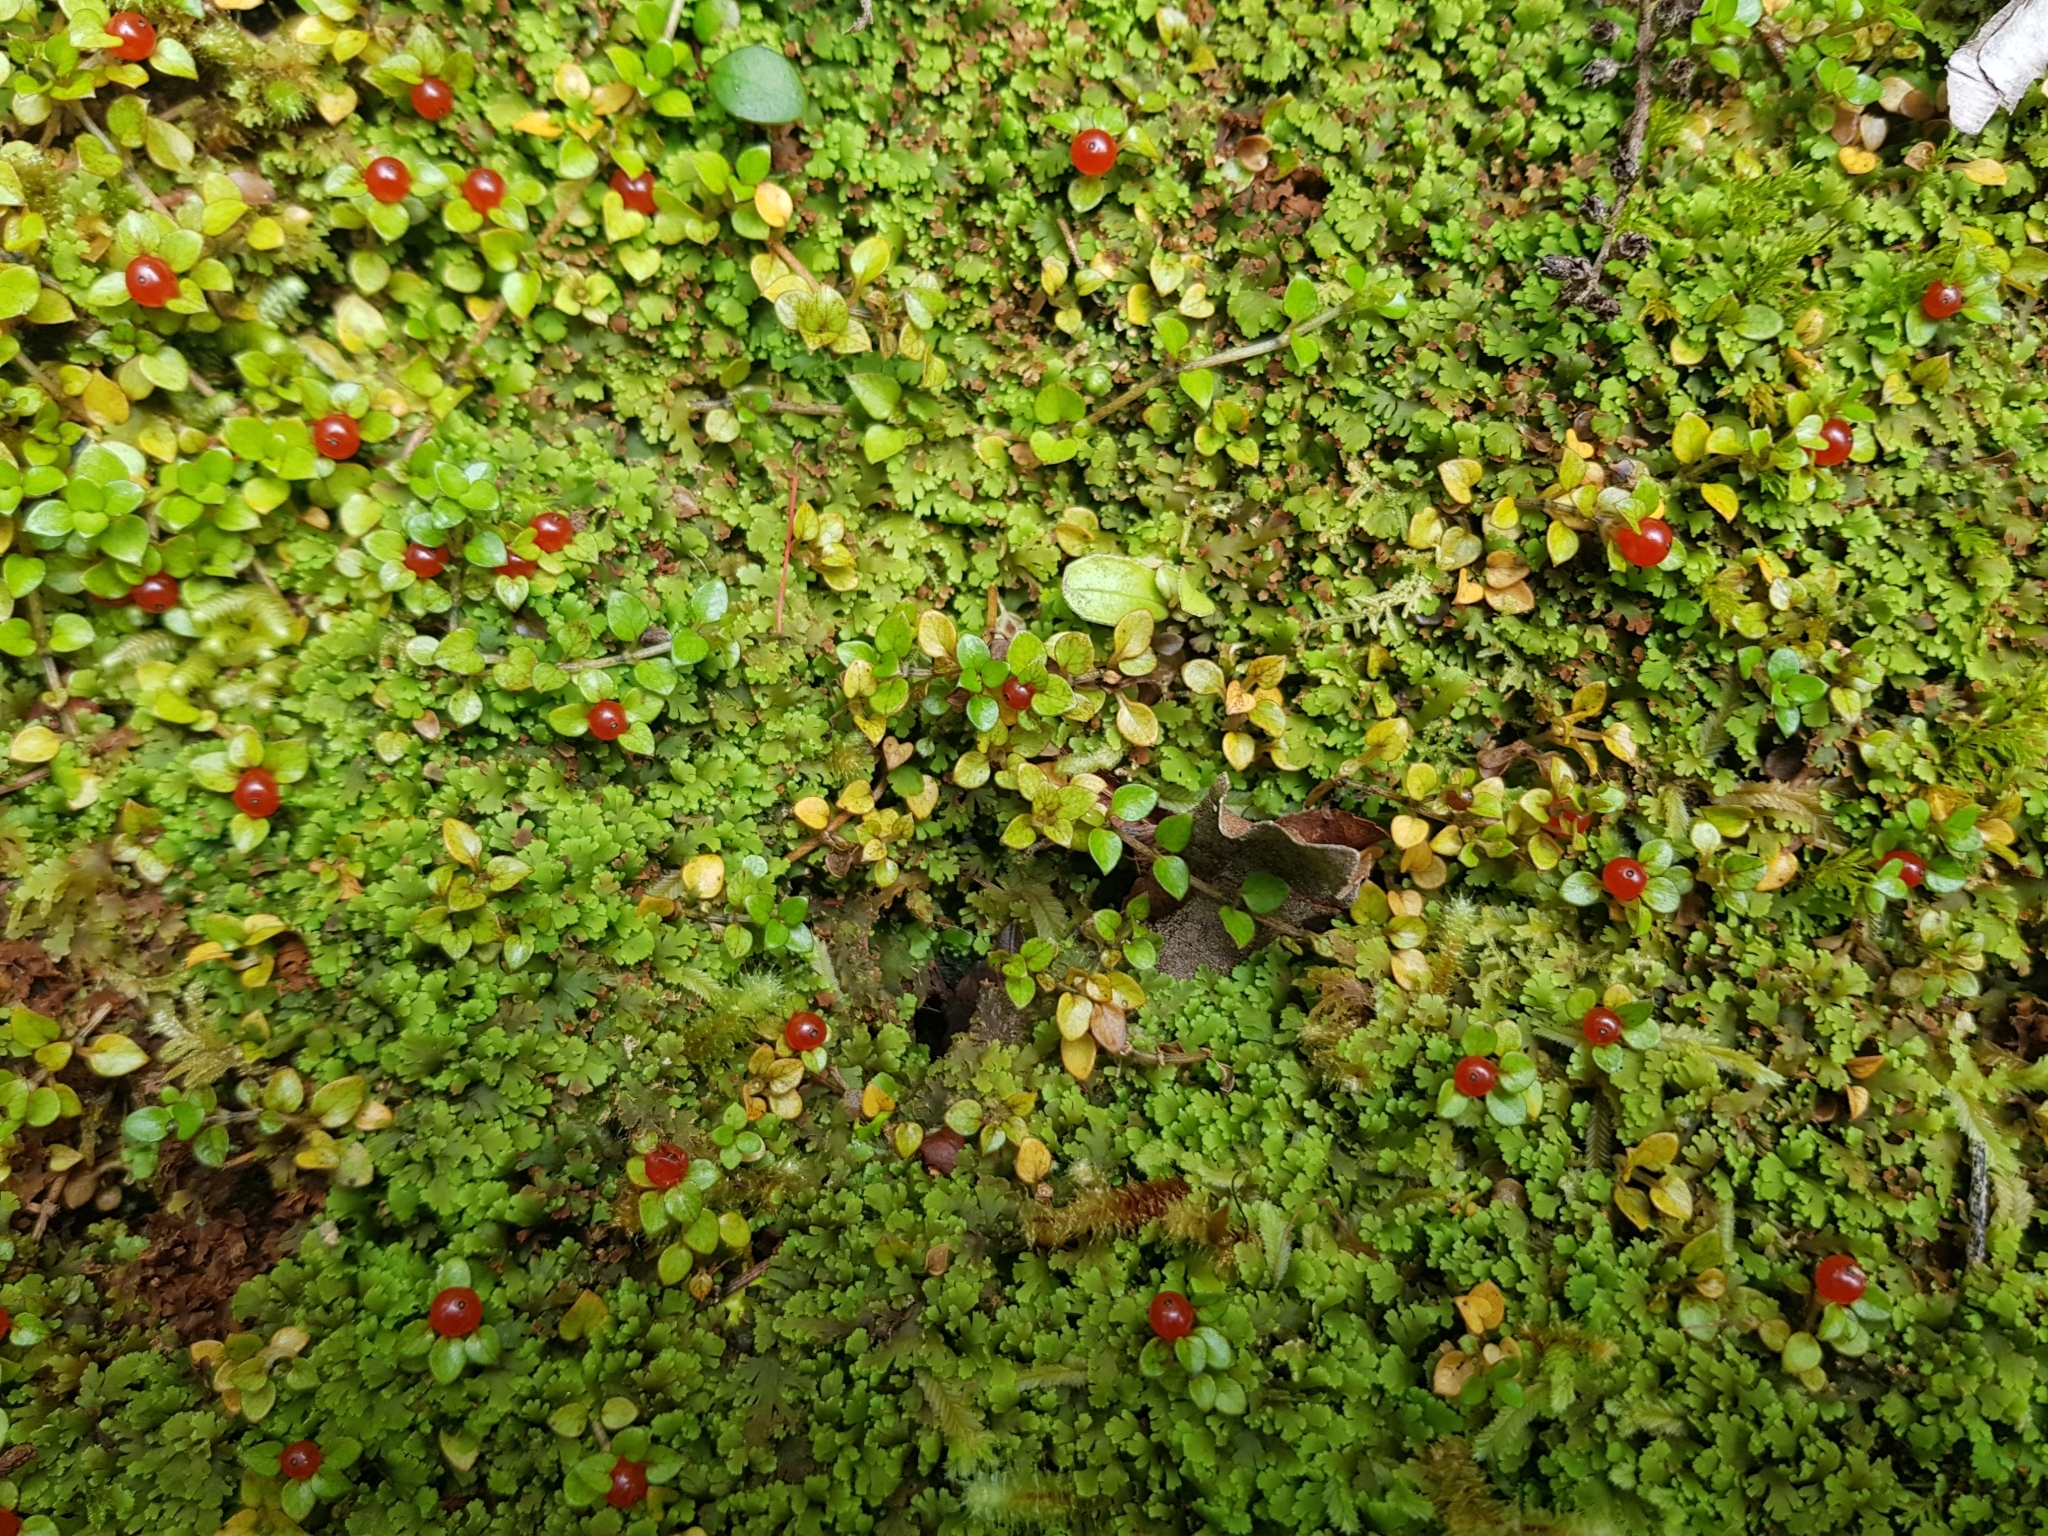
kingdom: Plantae
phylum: Tracheophyta
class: Magnoliopsida
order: Gentianales
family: Rubiaceae
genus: Nertera
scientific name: Nertera granadensis
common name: Beadplant
